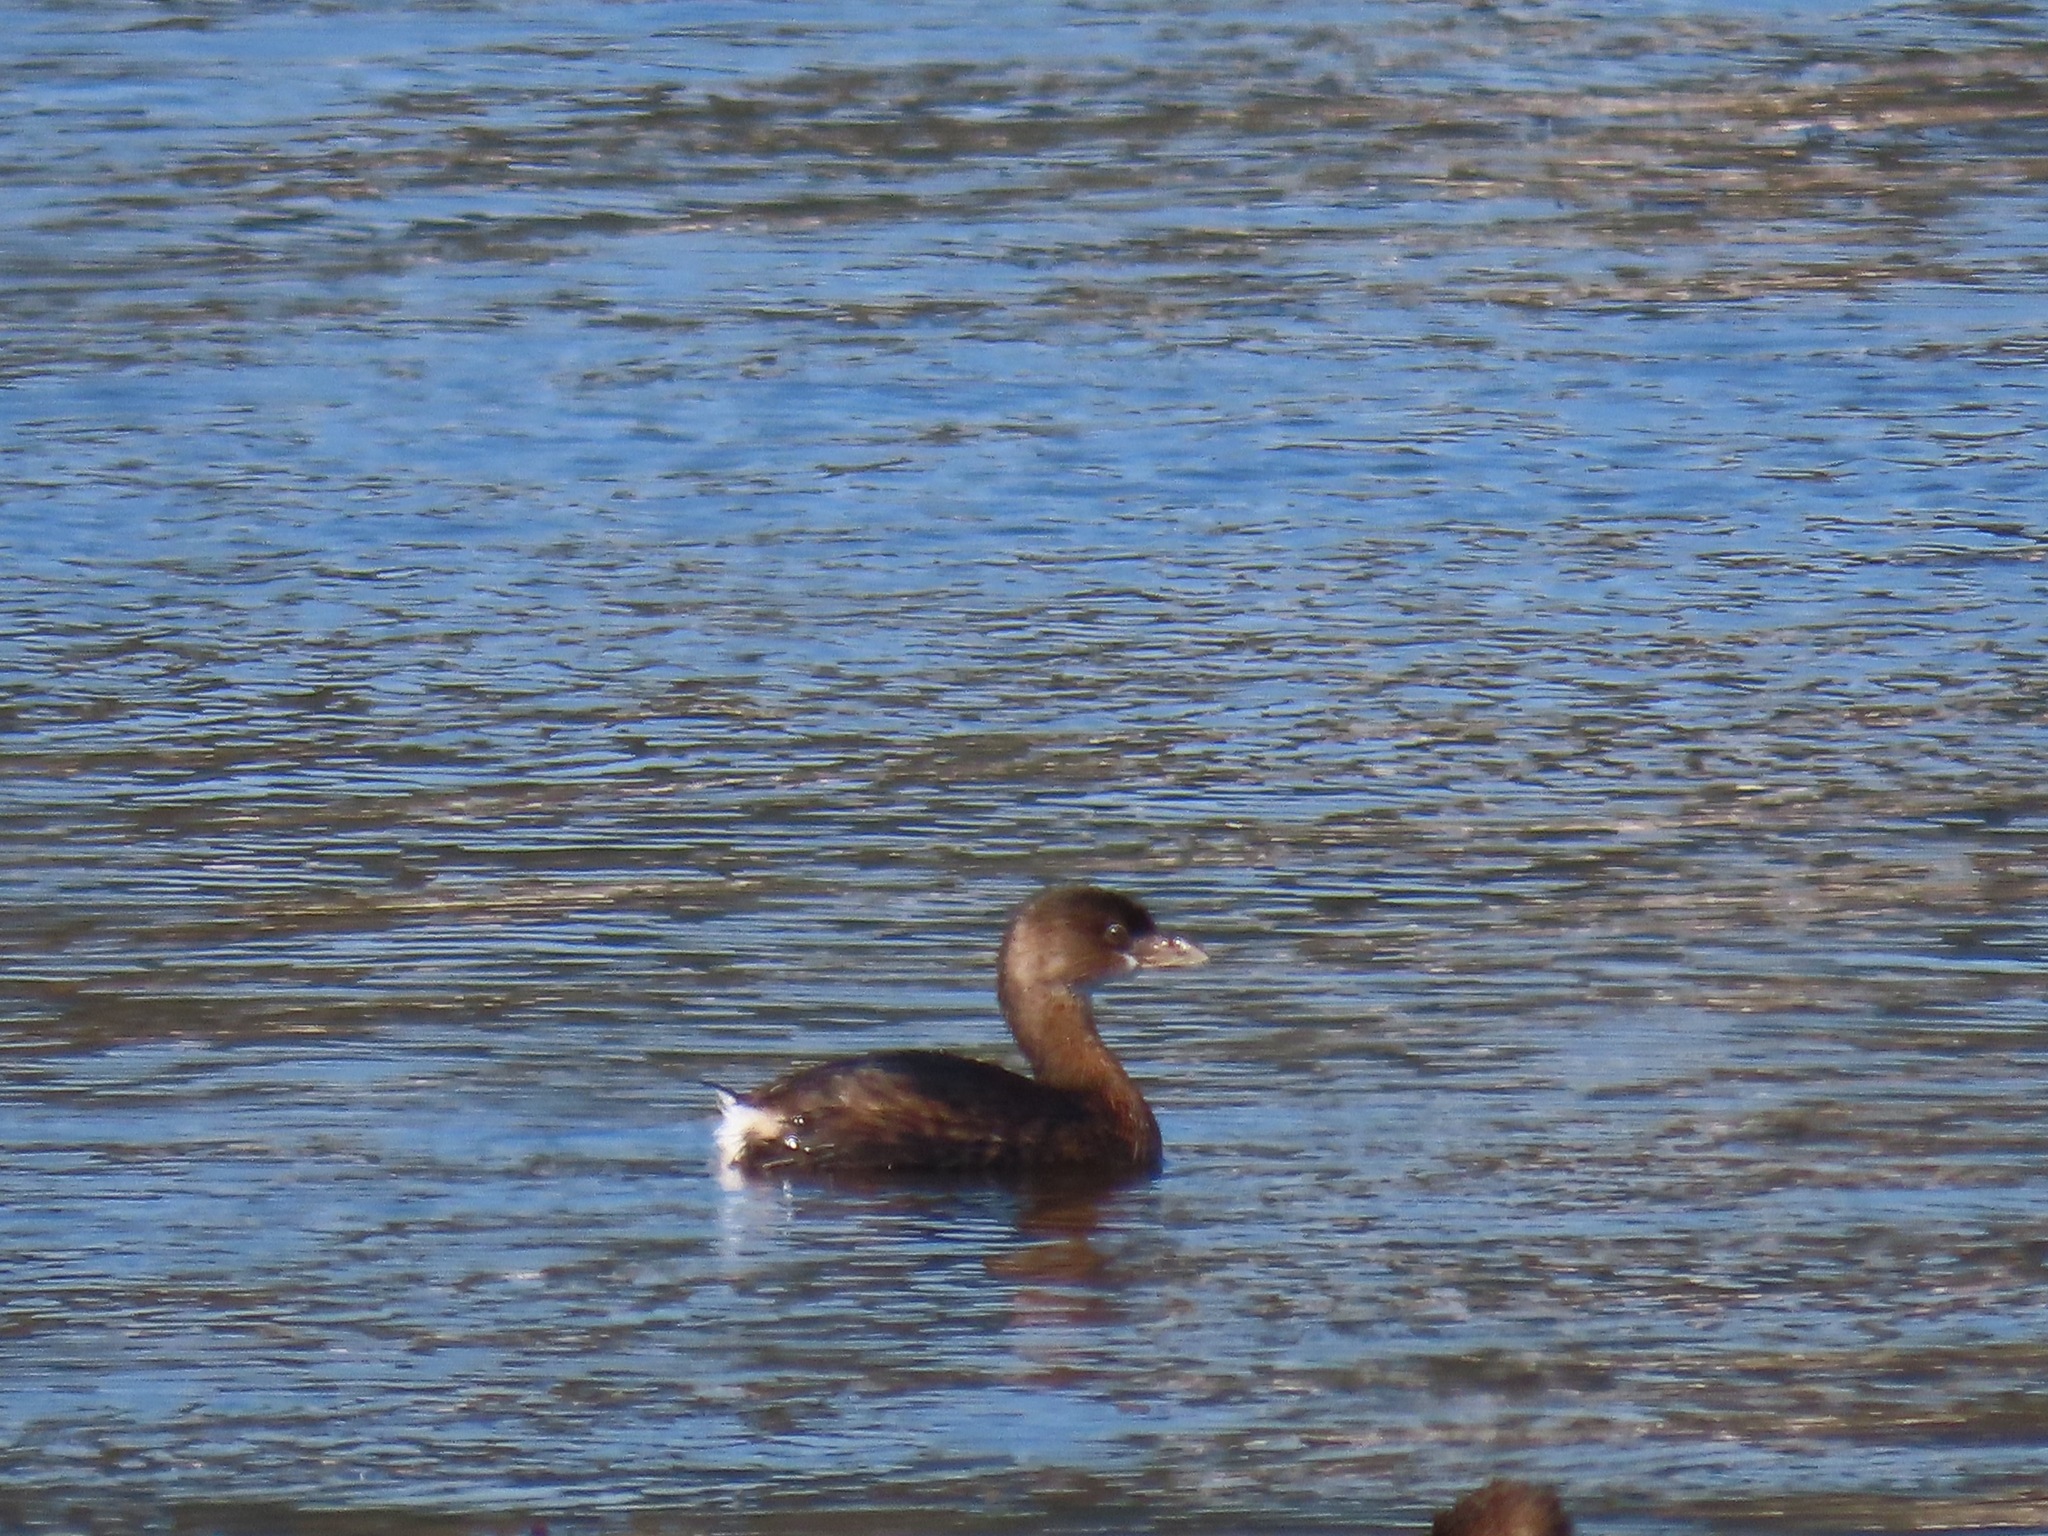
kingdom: Animalia
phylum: Chordata
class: Aves
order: Podicipediformes
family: Podicipedidae
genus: Podilymbus
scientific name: Podilymbus podiceps
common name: Pied-billed grebe
